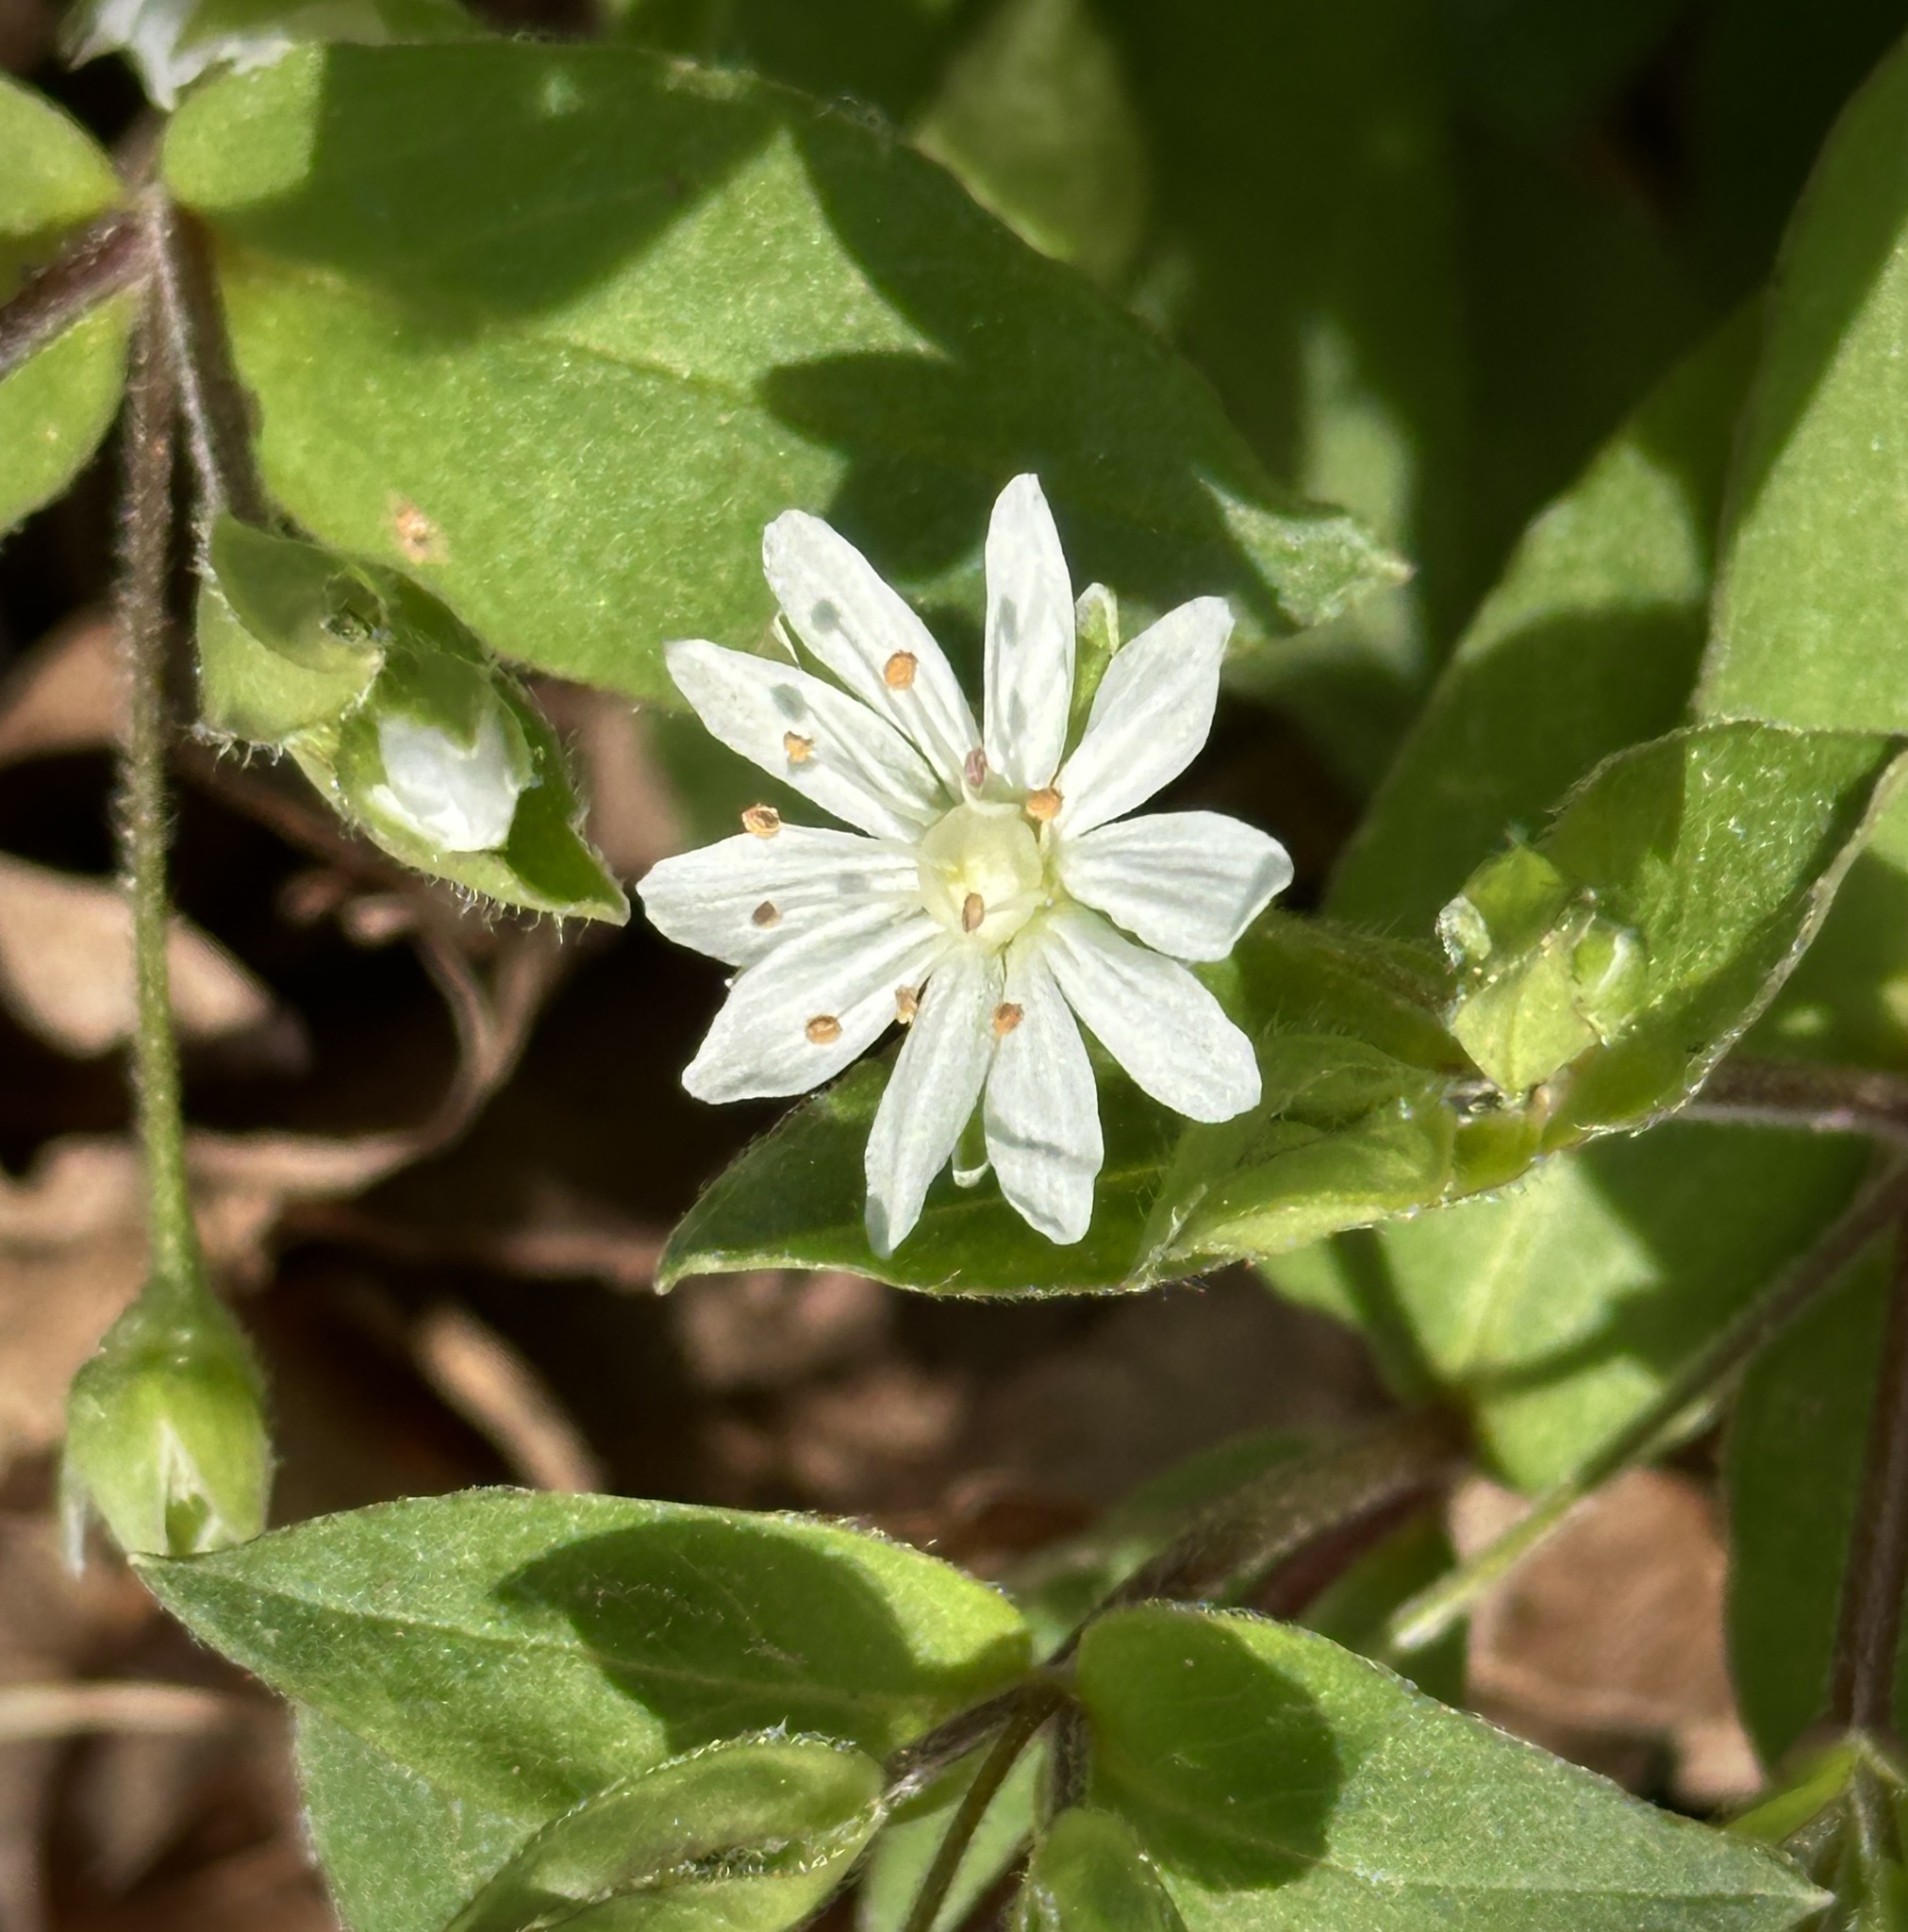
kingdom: Plantae
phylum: Tracheophyta
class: Magnoliopsida
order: Caryophyllales
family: Caryophyllaceae
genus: Stellaria
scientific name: Stellaria pubera
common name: Star chickweed
